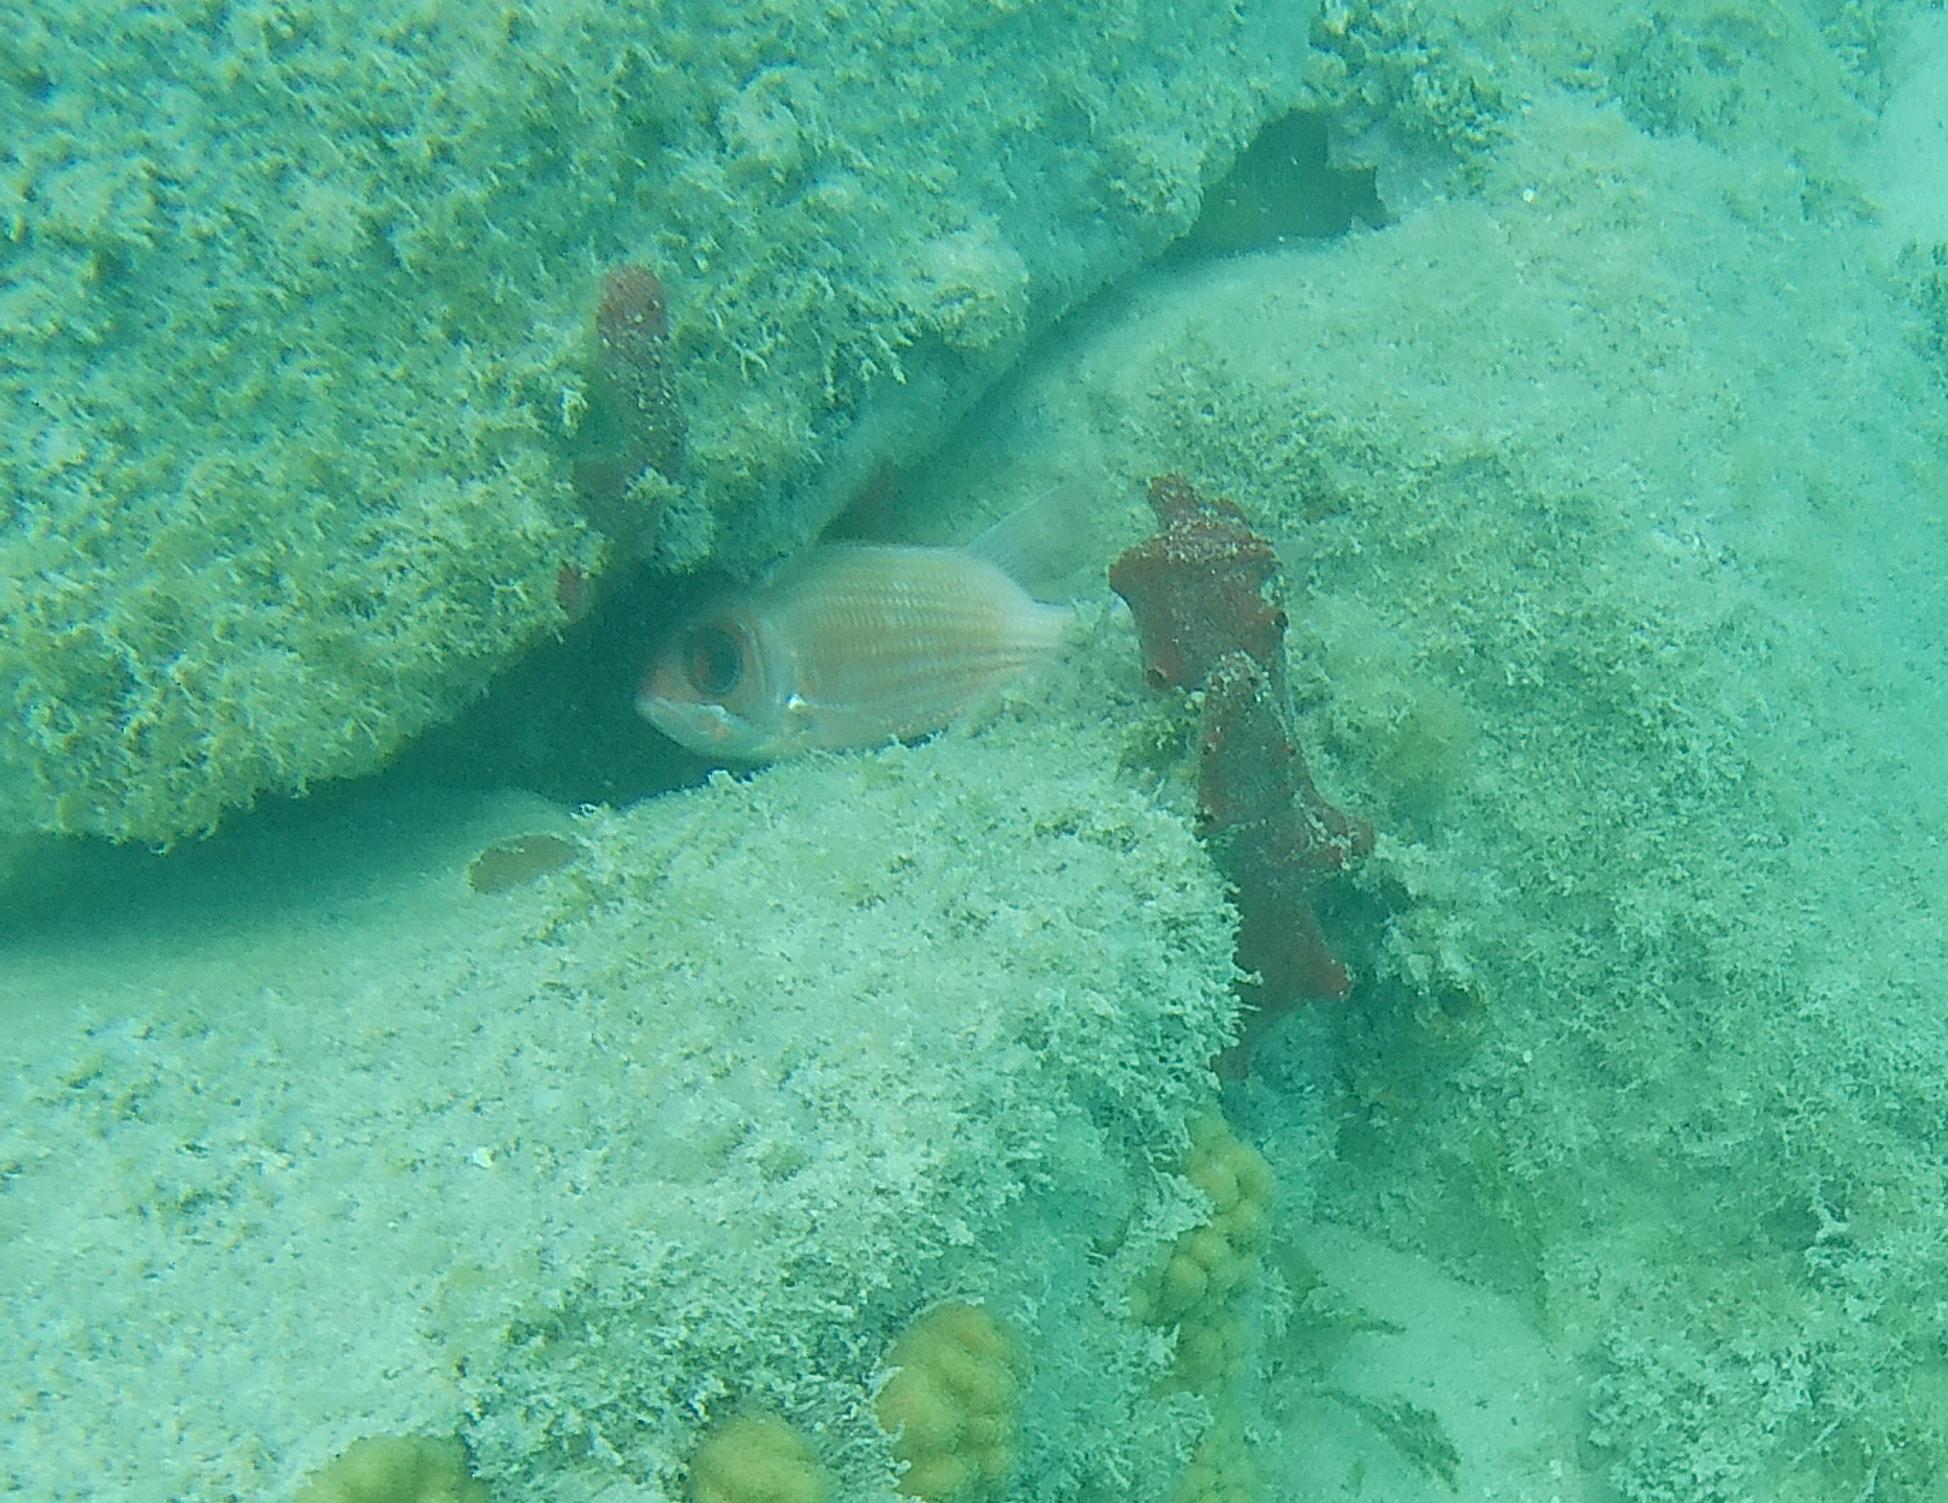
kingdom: Animalia
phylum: Chordata
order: Beryciformes
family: Holocentridae
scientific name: Holocentridae
